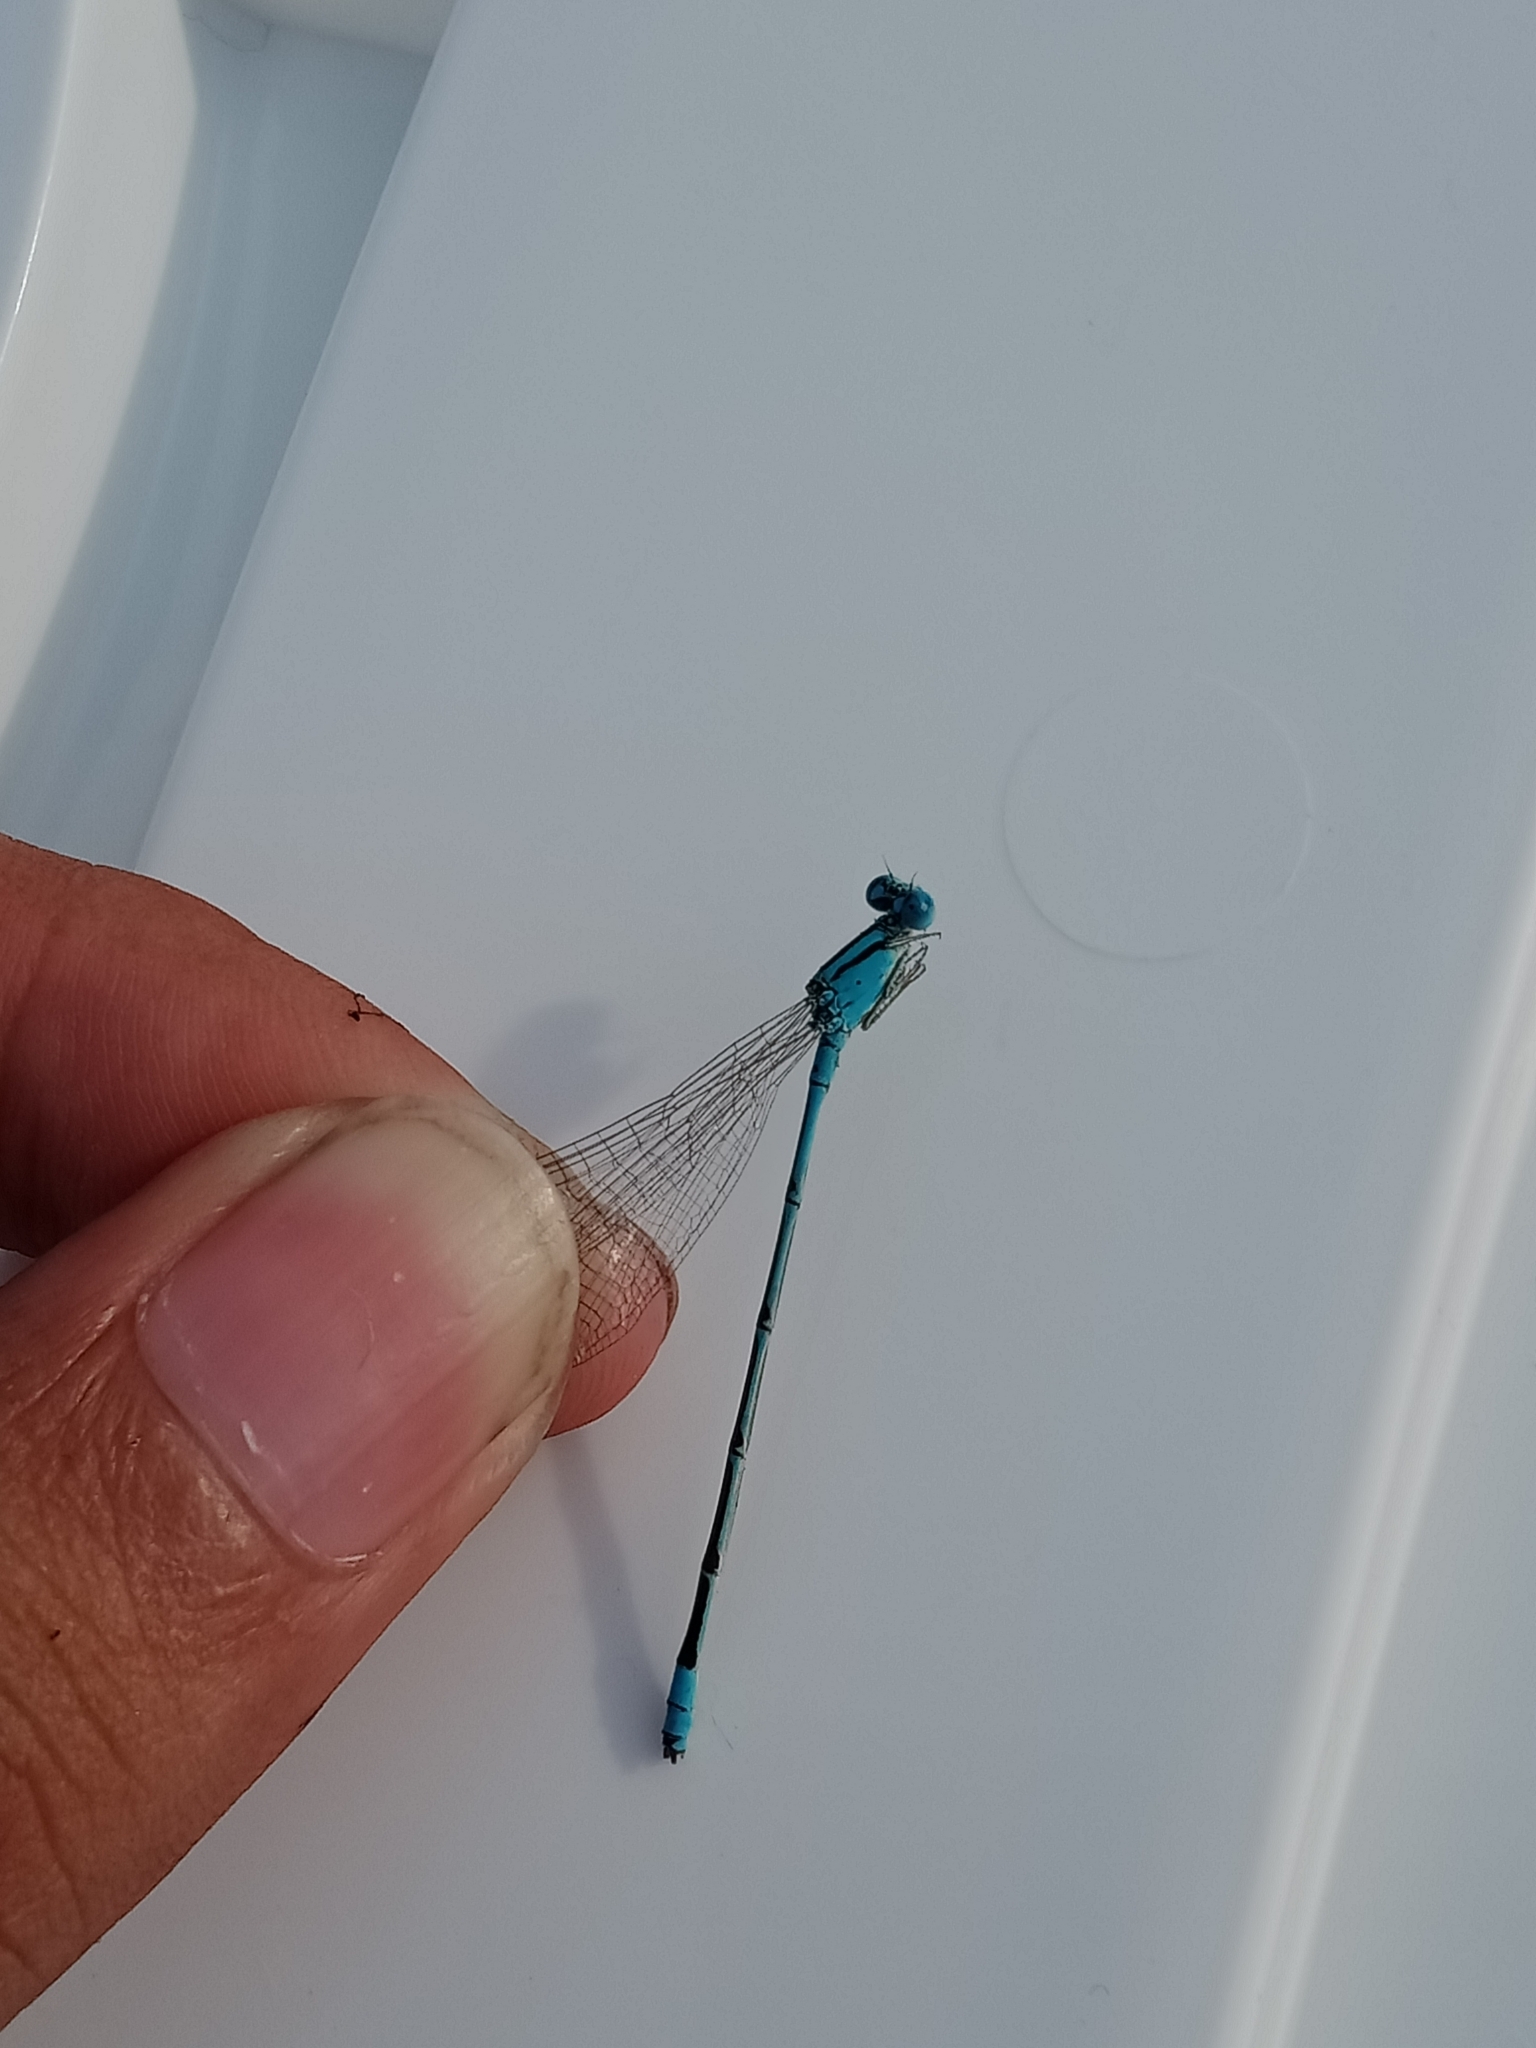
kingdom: Animalia
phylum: Arthropoda
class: Insecta
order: Odonata
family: Coenagrionidae
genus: Pseudagrion
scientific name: Pseudagrion microcephalum
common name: Blue riverdamsel
